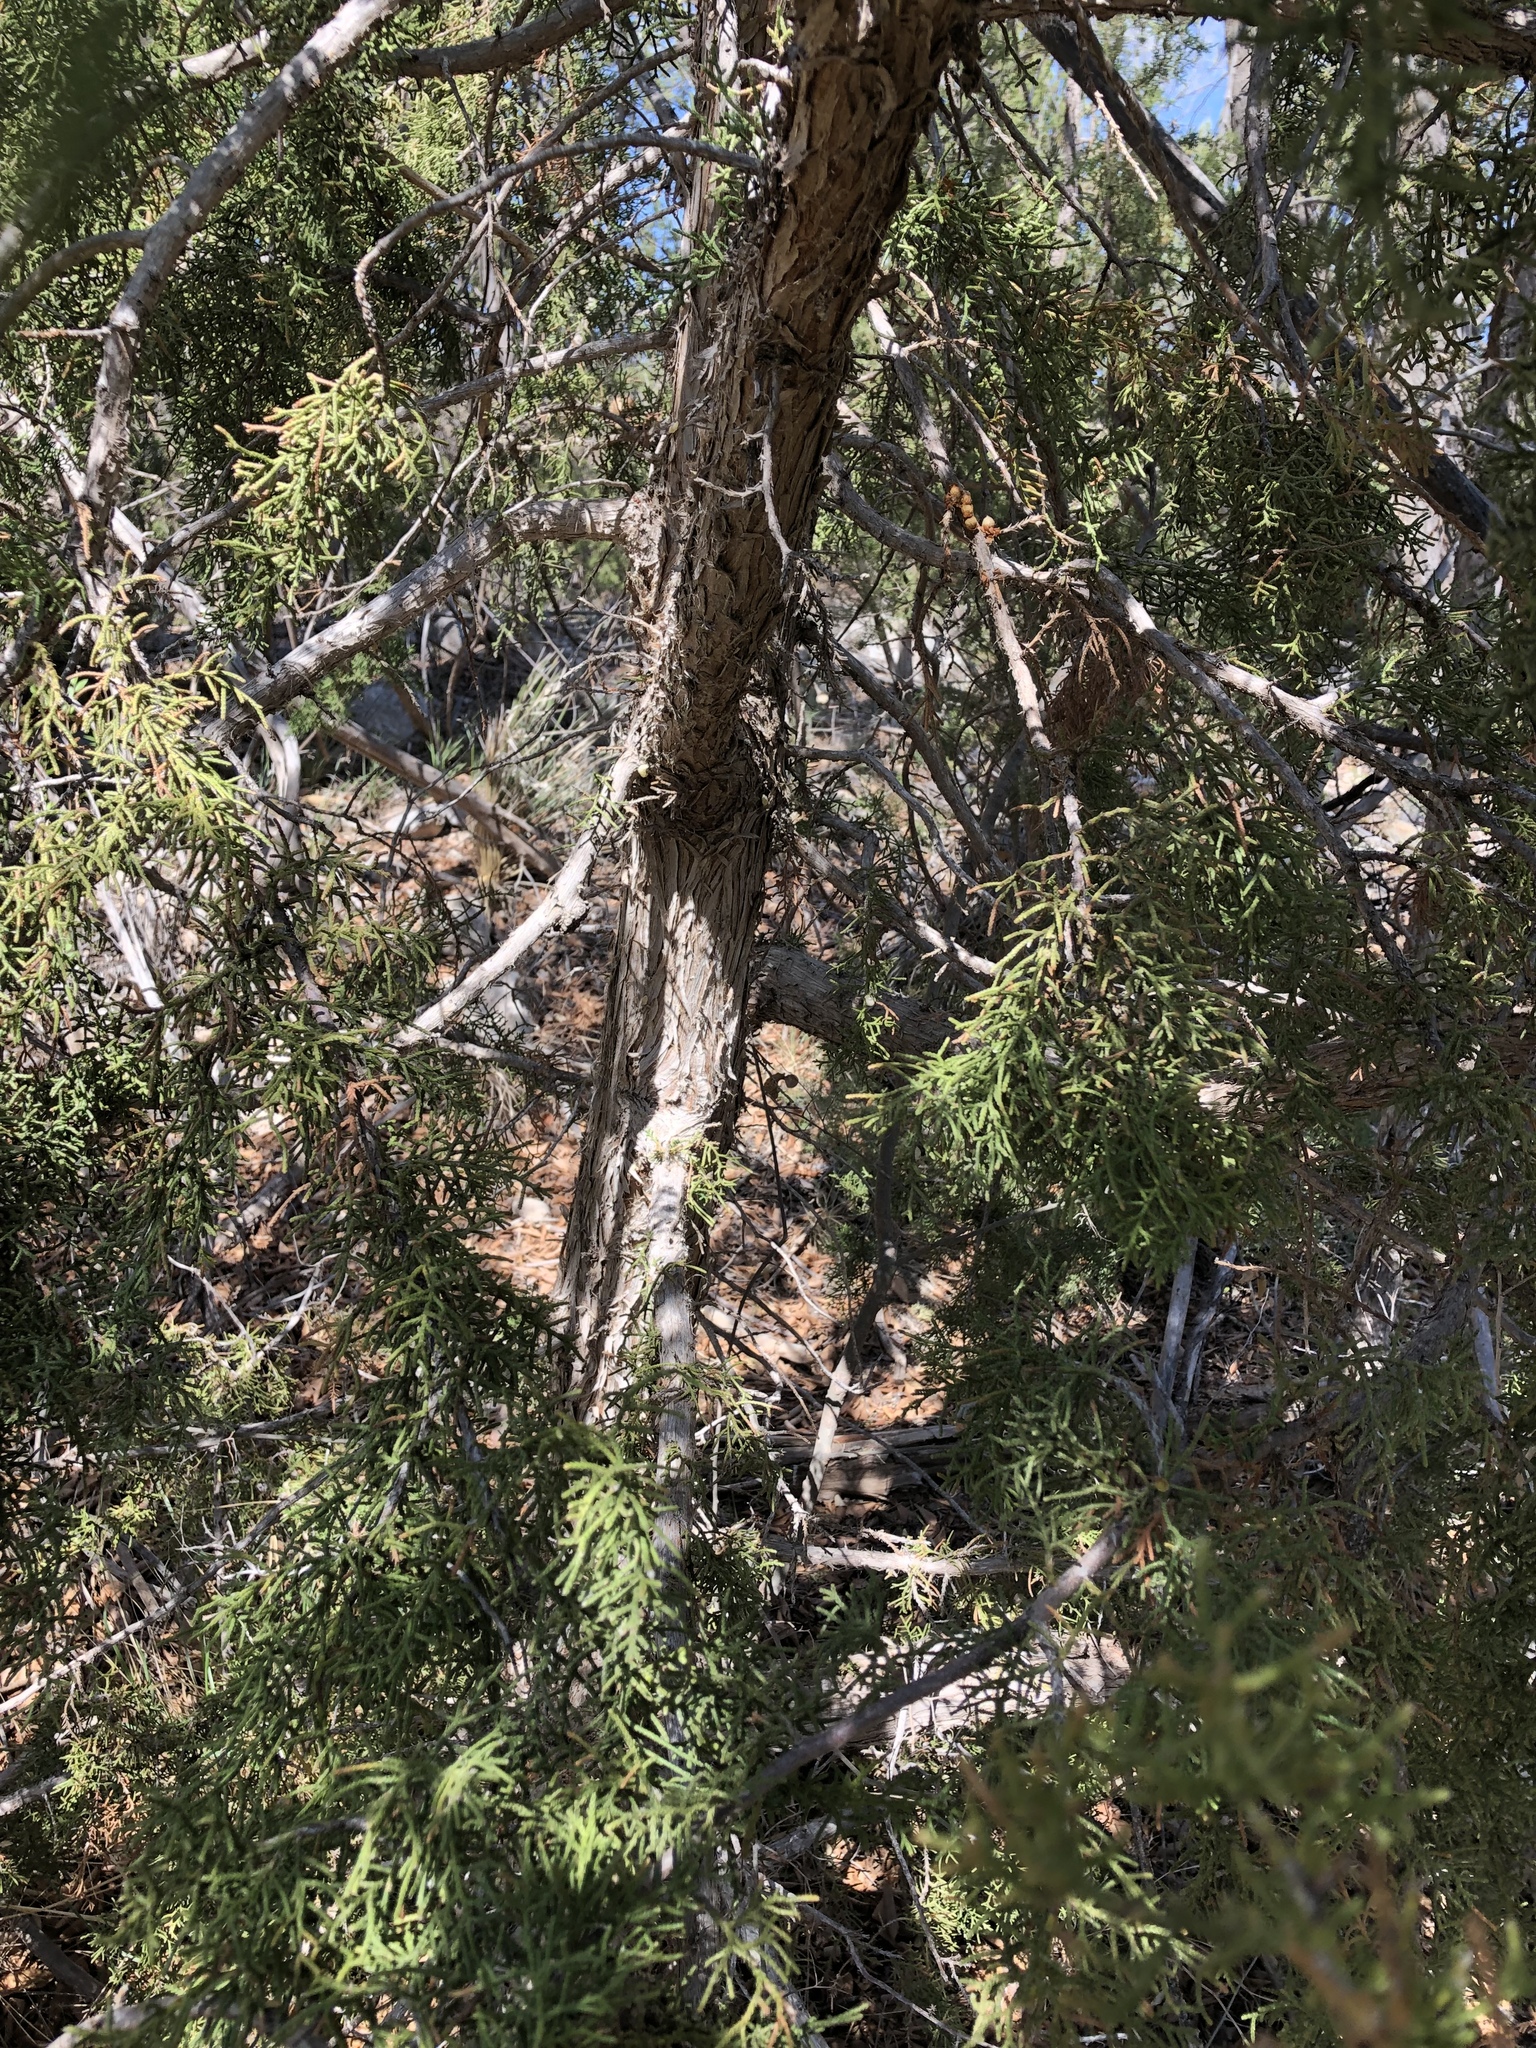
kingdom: Plantae
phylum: Tracheophyta
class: Pinopsida
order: Pinales
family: Cupressaceae
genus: Juniperus
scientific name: Juniperus monosperma
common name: One-seed juniper
